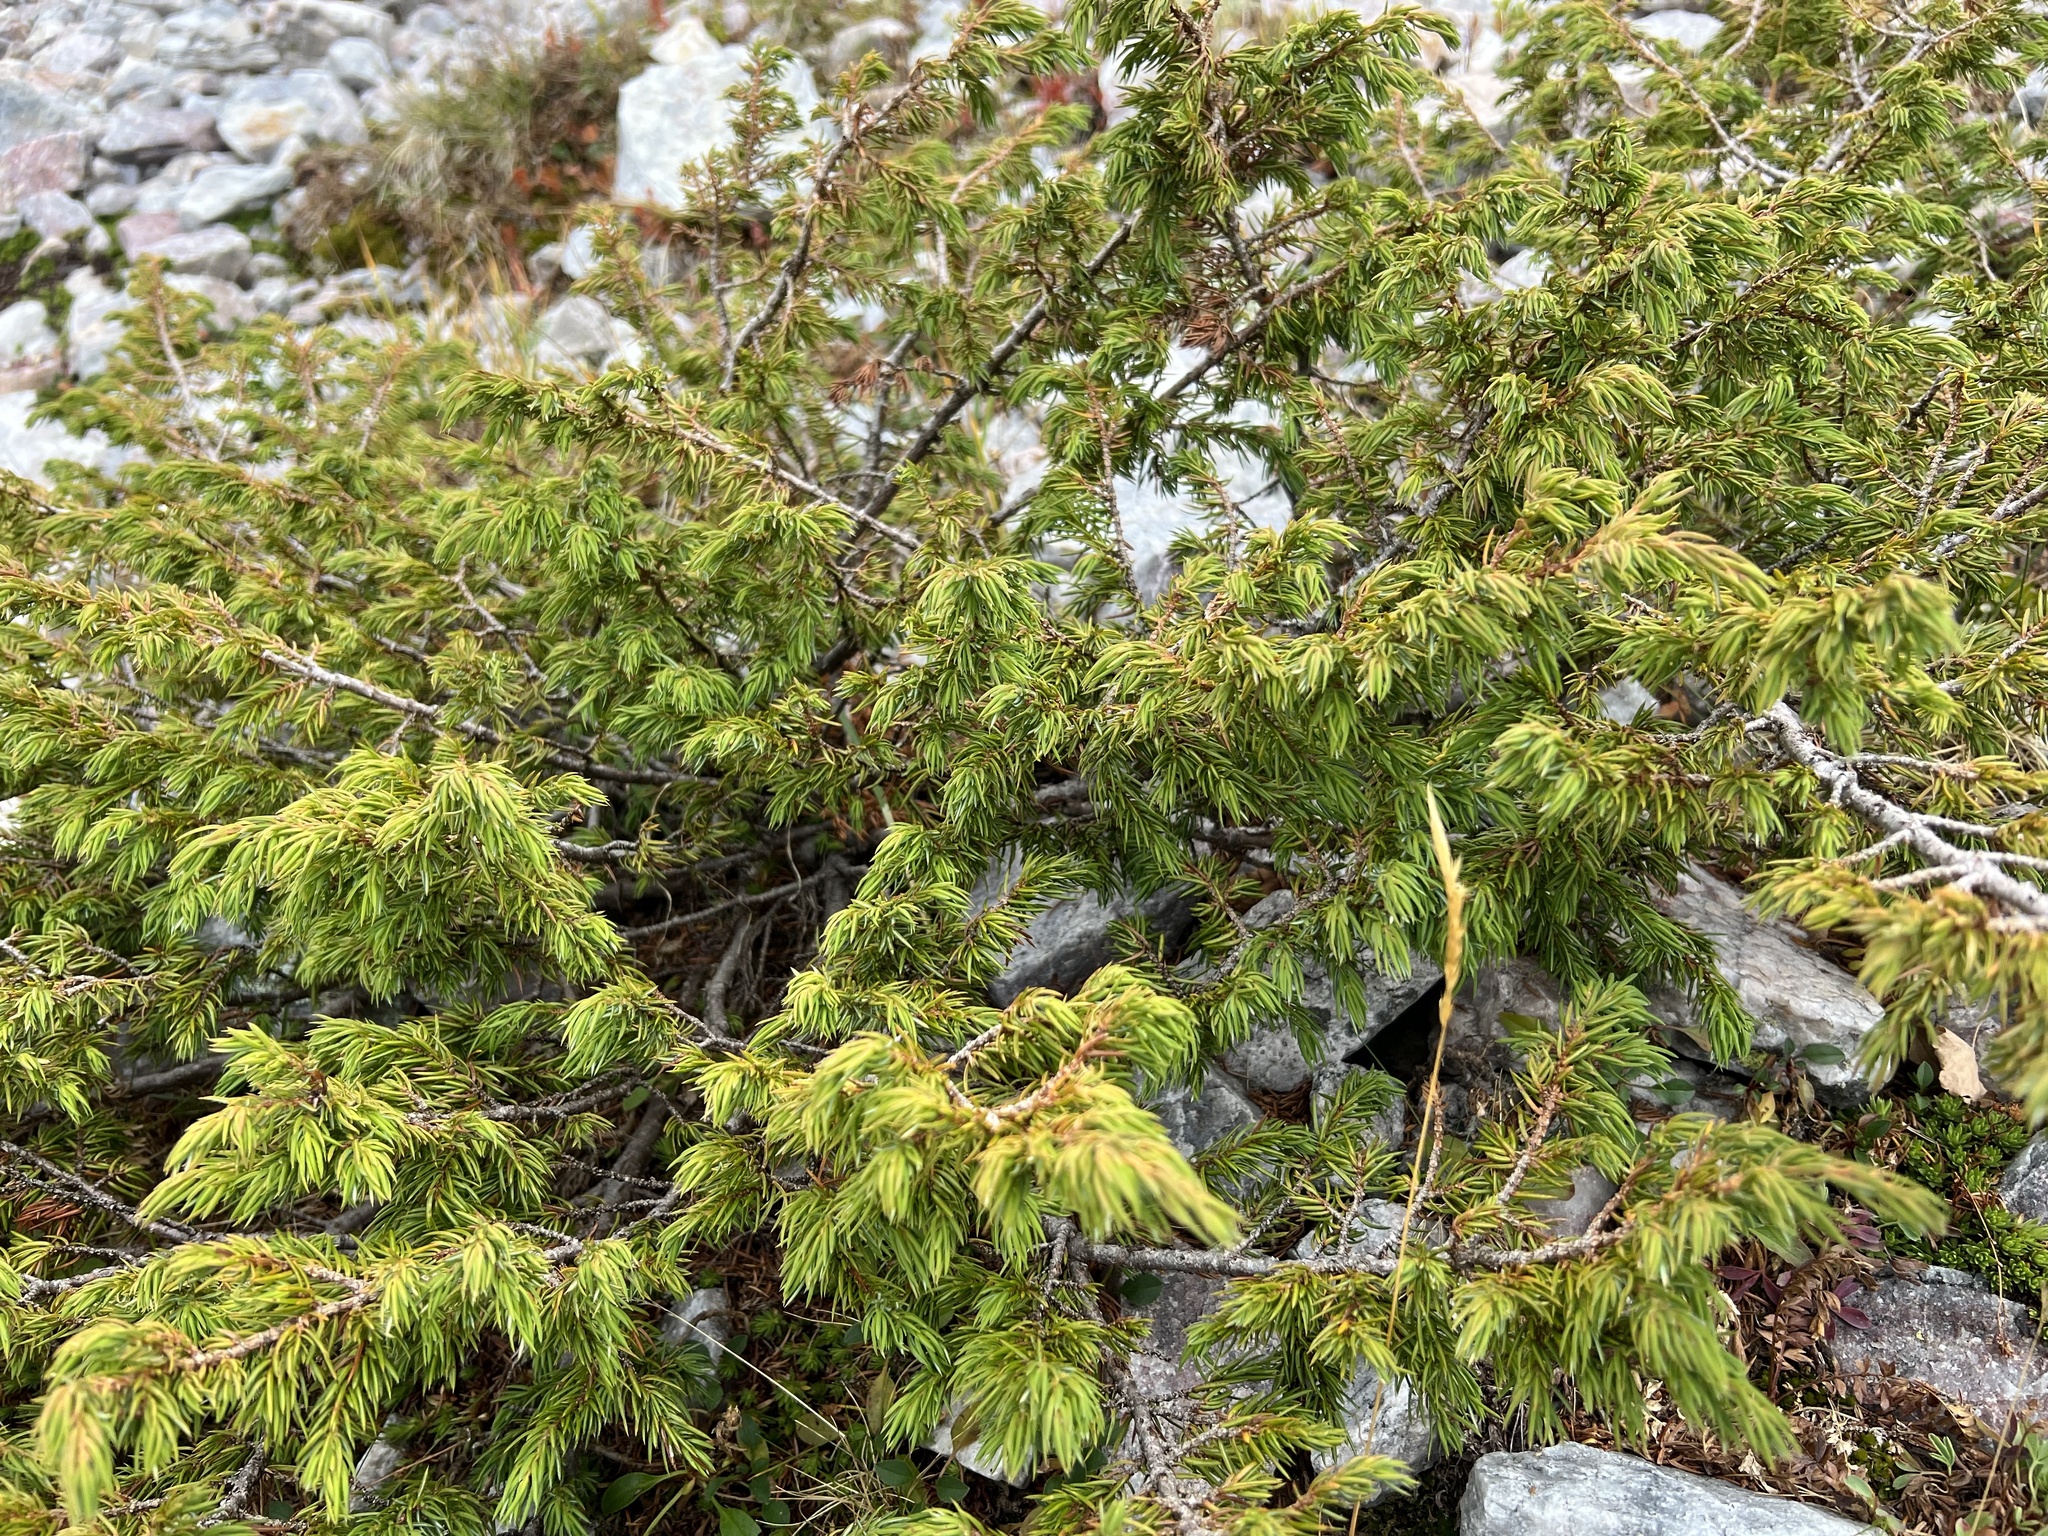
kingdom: Plantae
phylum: Tracheophyta
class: Pinopsida
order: Pinales
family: Cupressaceae
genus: Juniperus
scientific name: Juniperus communis
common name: Common juniper
